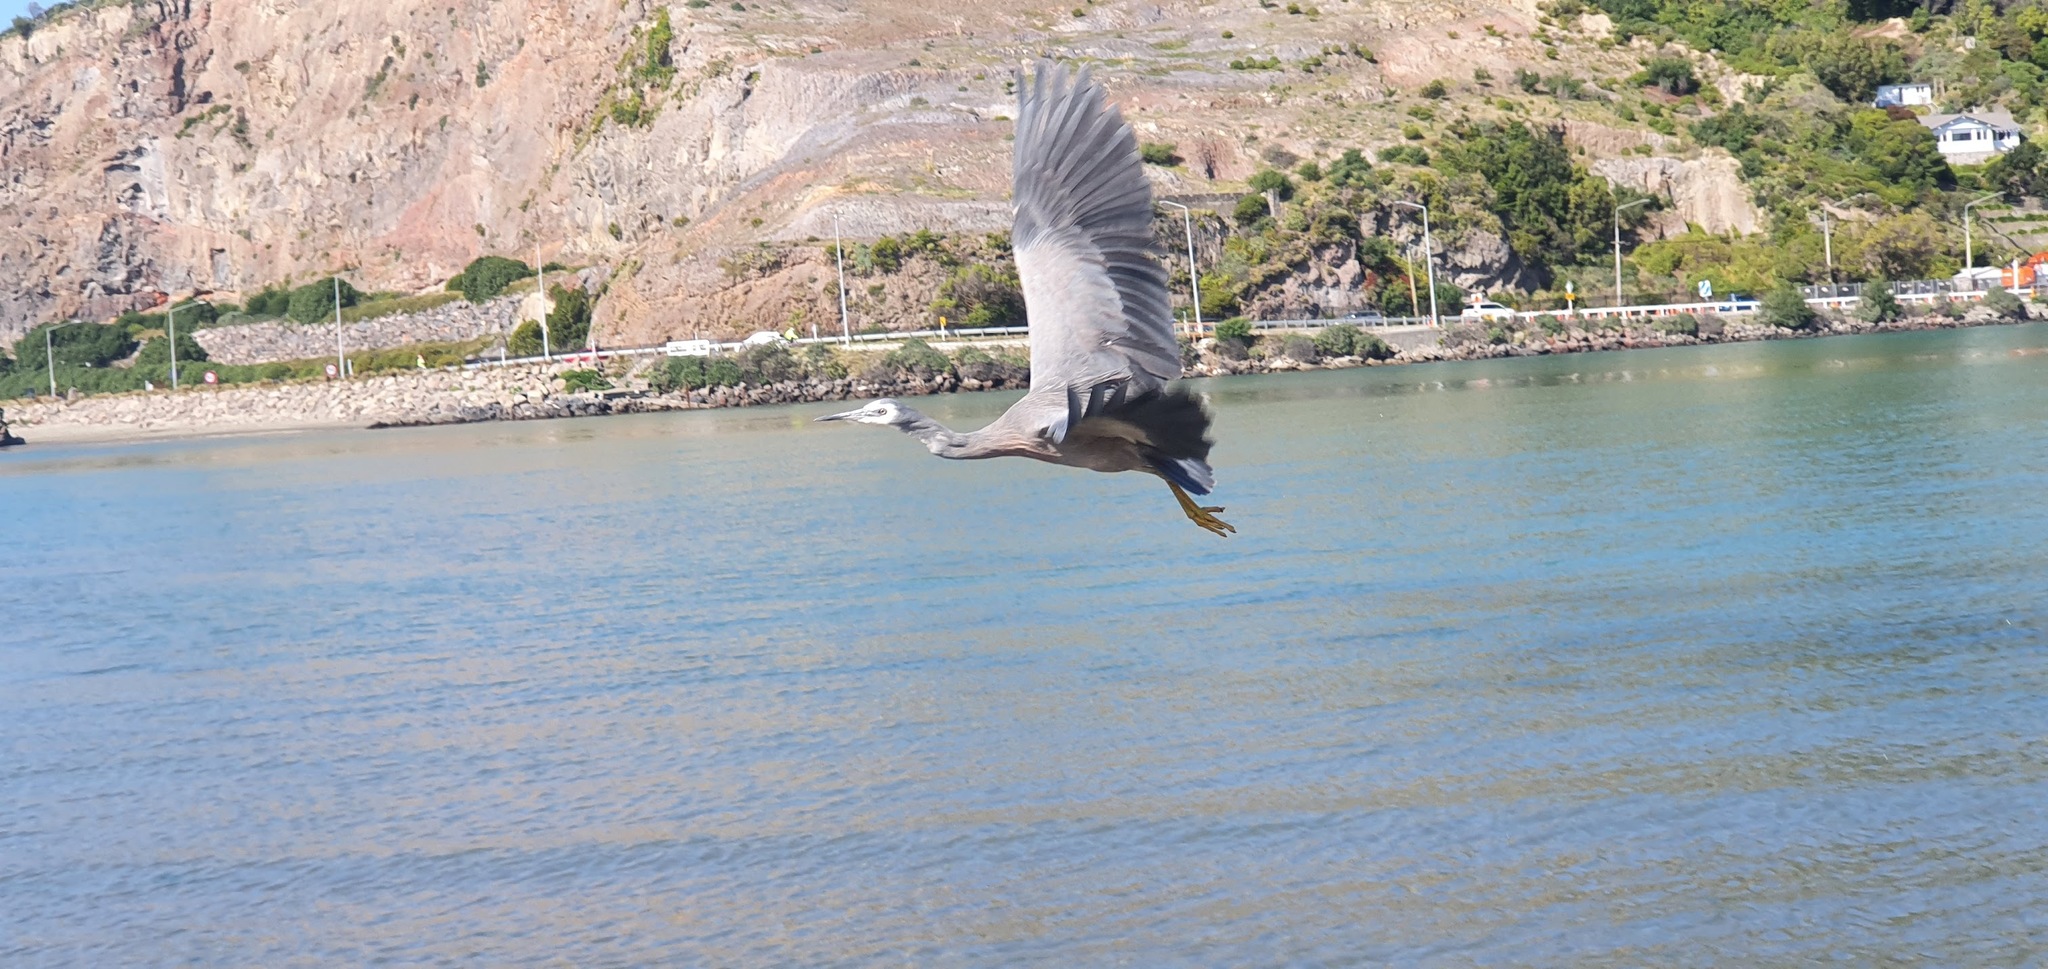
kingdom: Animalia
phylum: Chordata
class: Aves
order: Pelecaniformes
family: Ardeidae
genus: Egretta
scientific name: Egretta novaehollandiae
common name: White-faced heron
